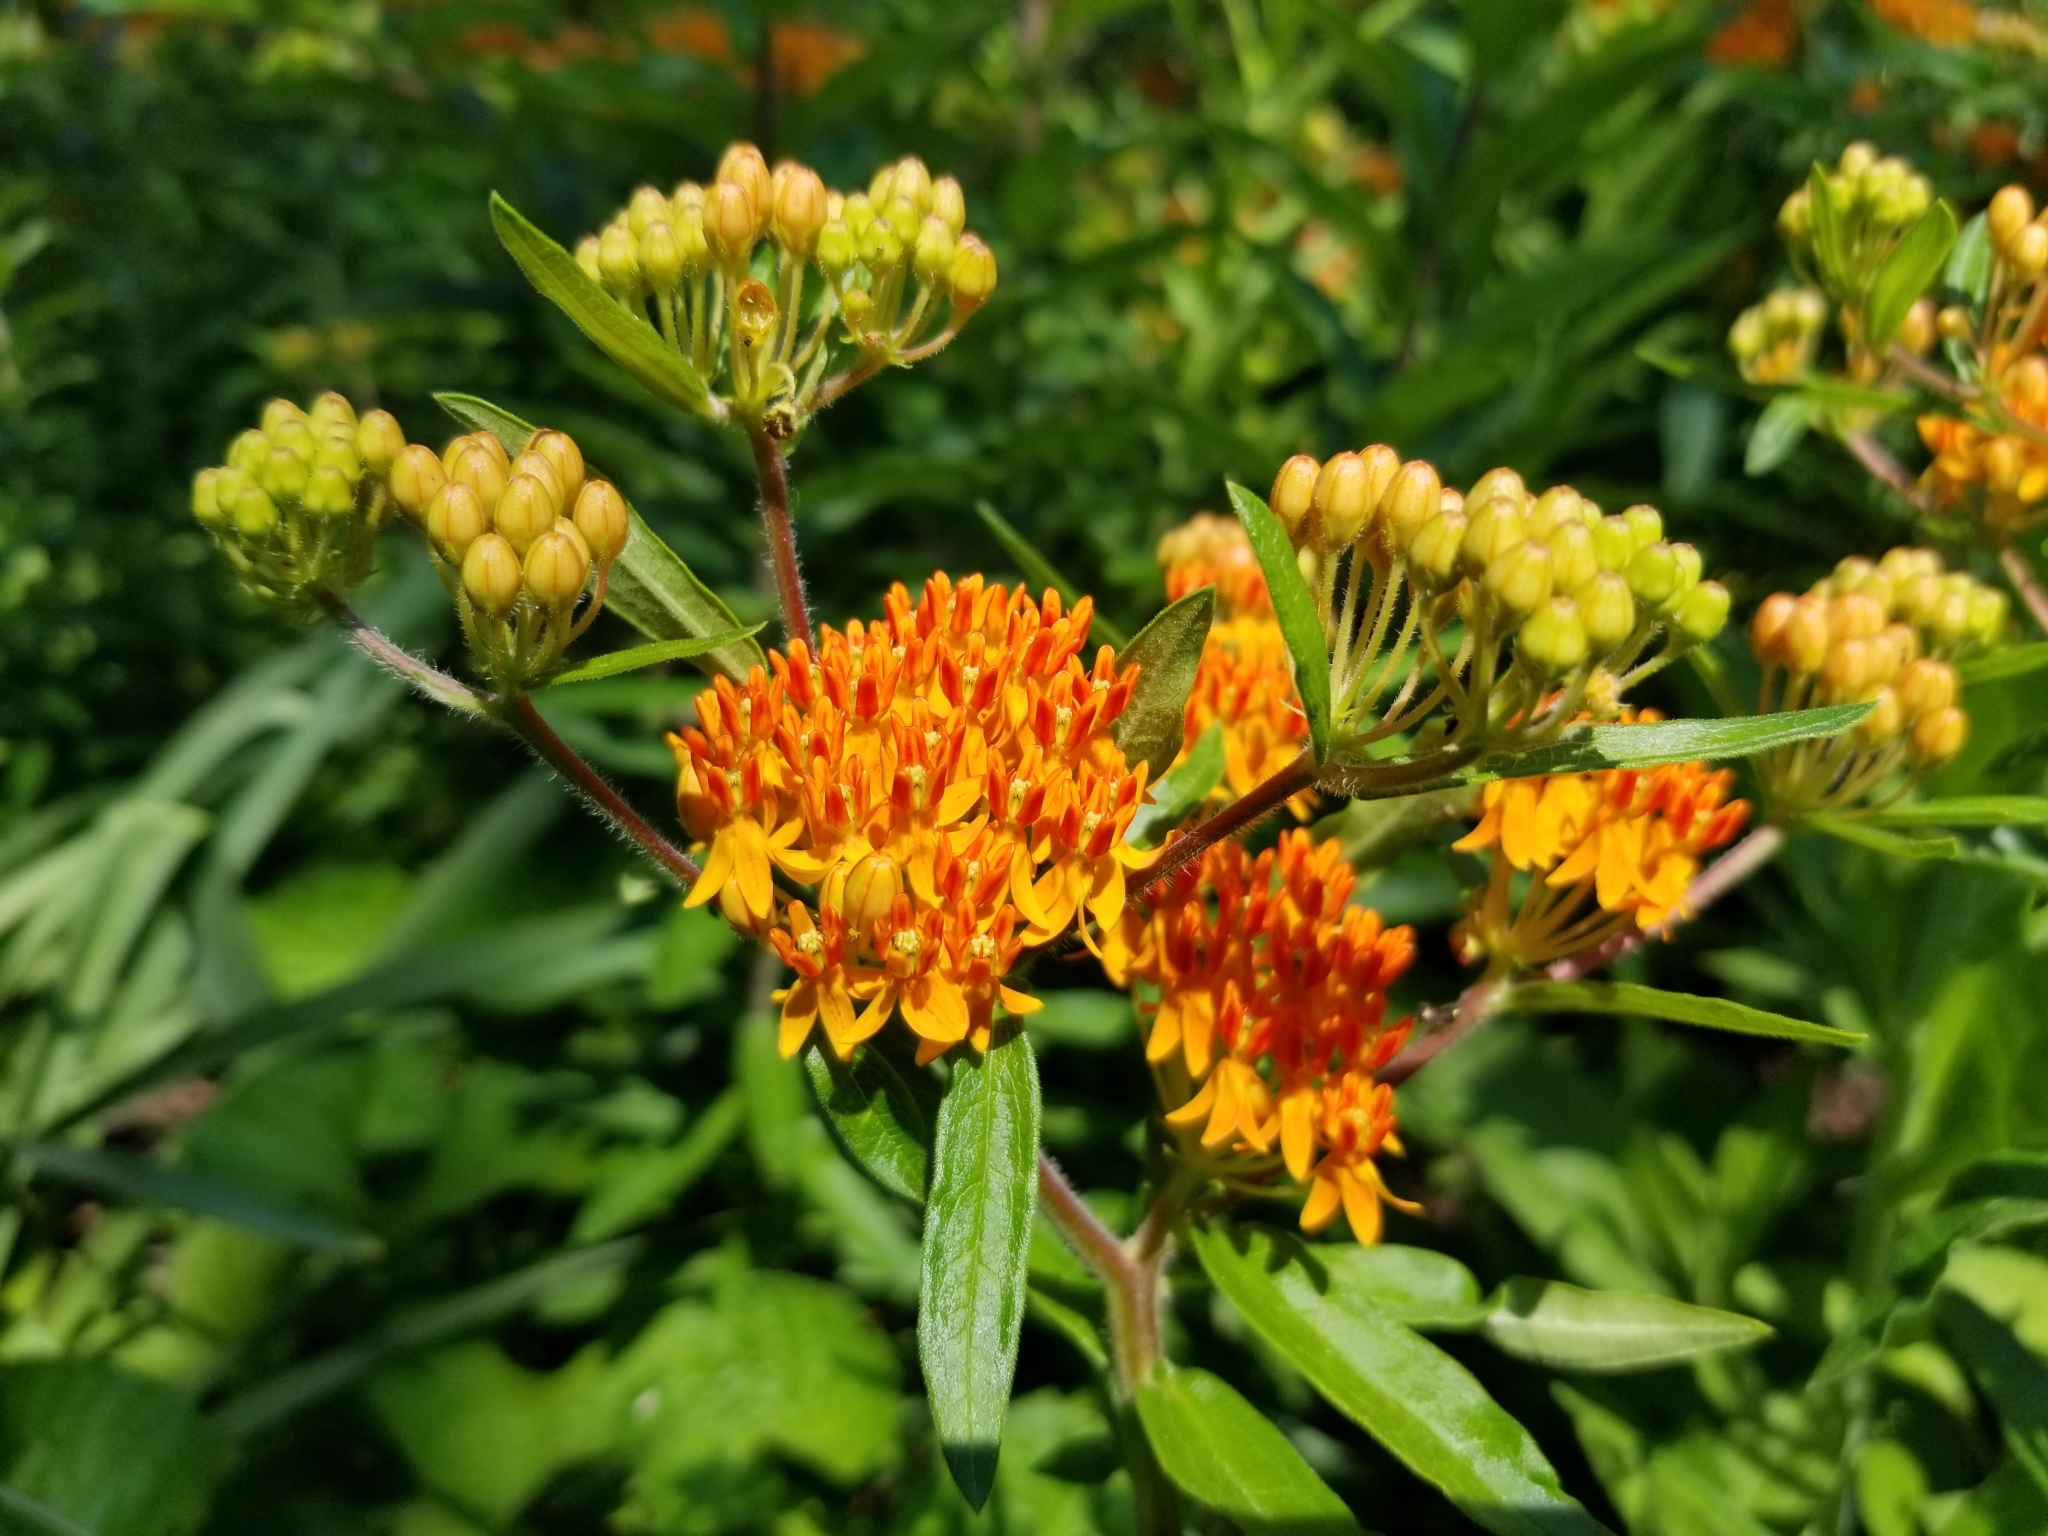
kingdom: Plantae
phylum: Tracheophyta
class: Magnoliopsida
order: Gentianales
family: Apocynaceae
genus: Asclepias
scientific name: Asclepias tuberosa
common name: Butterfly milkweed
